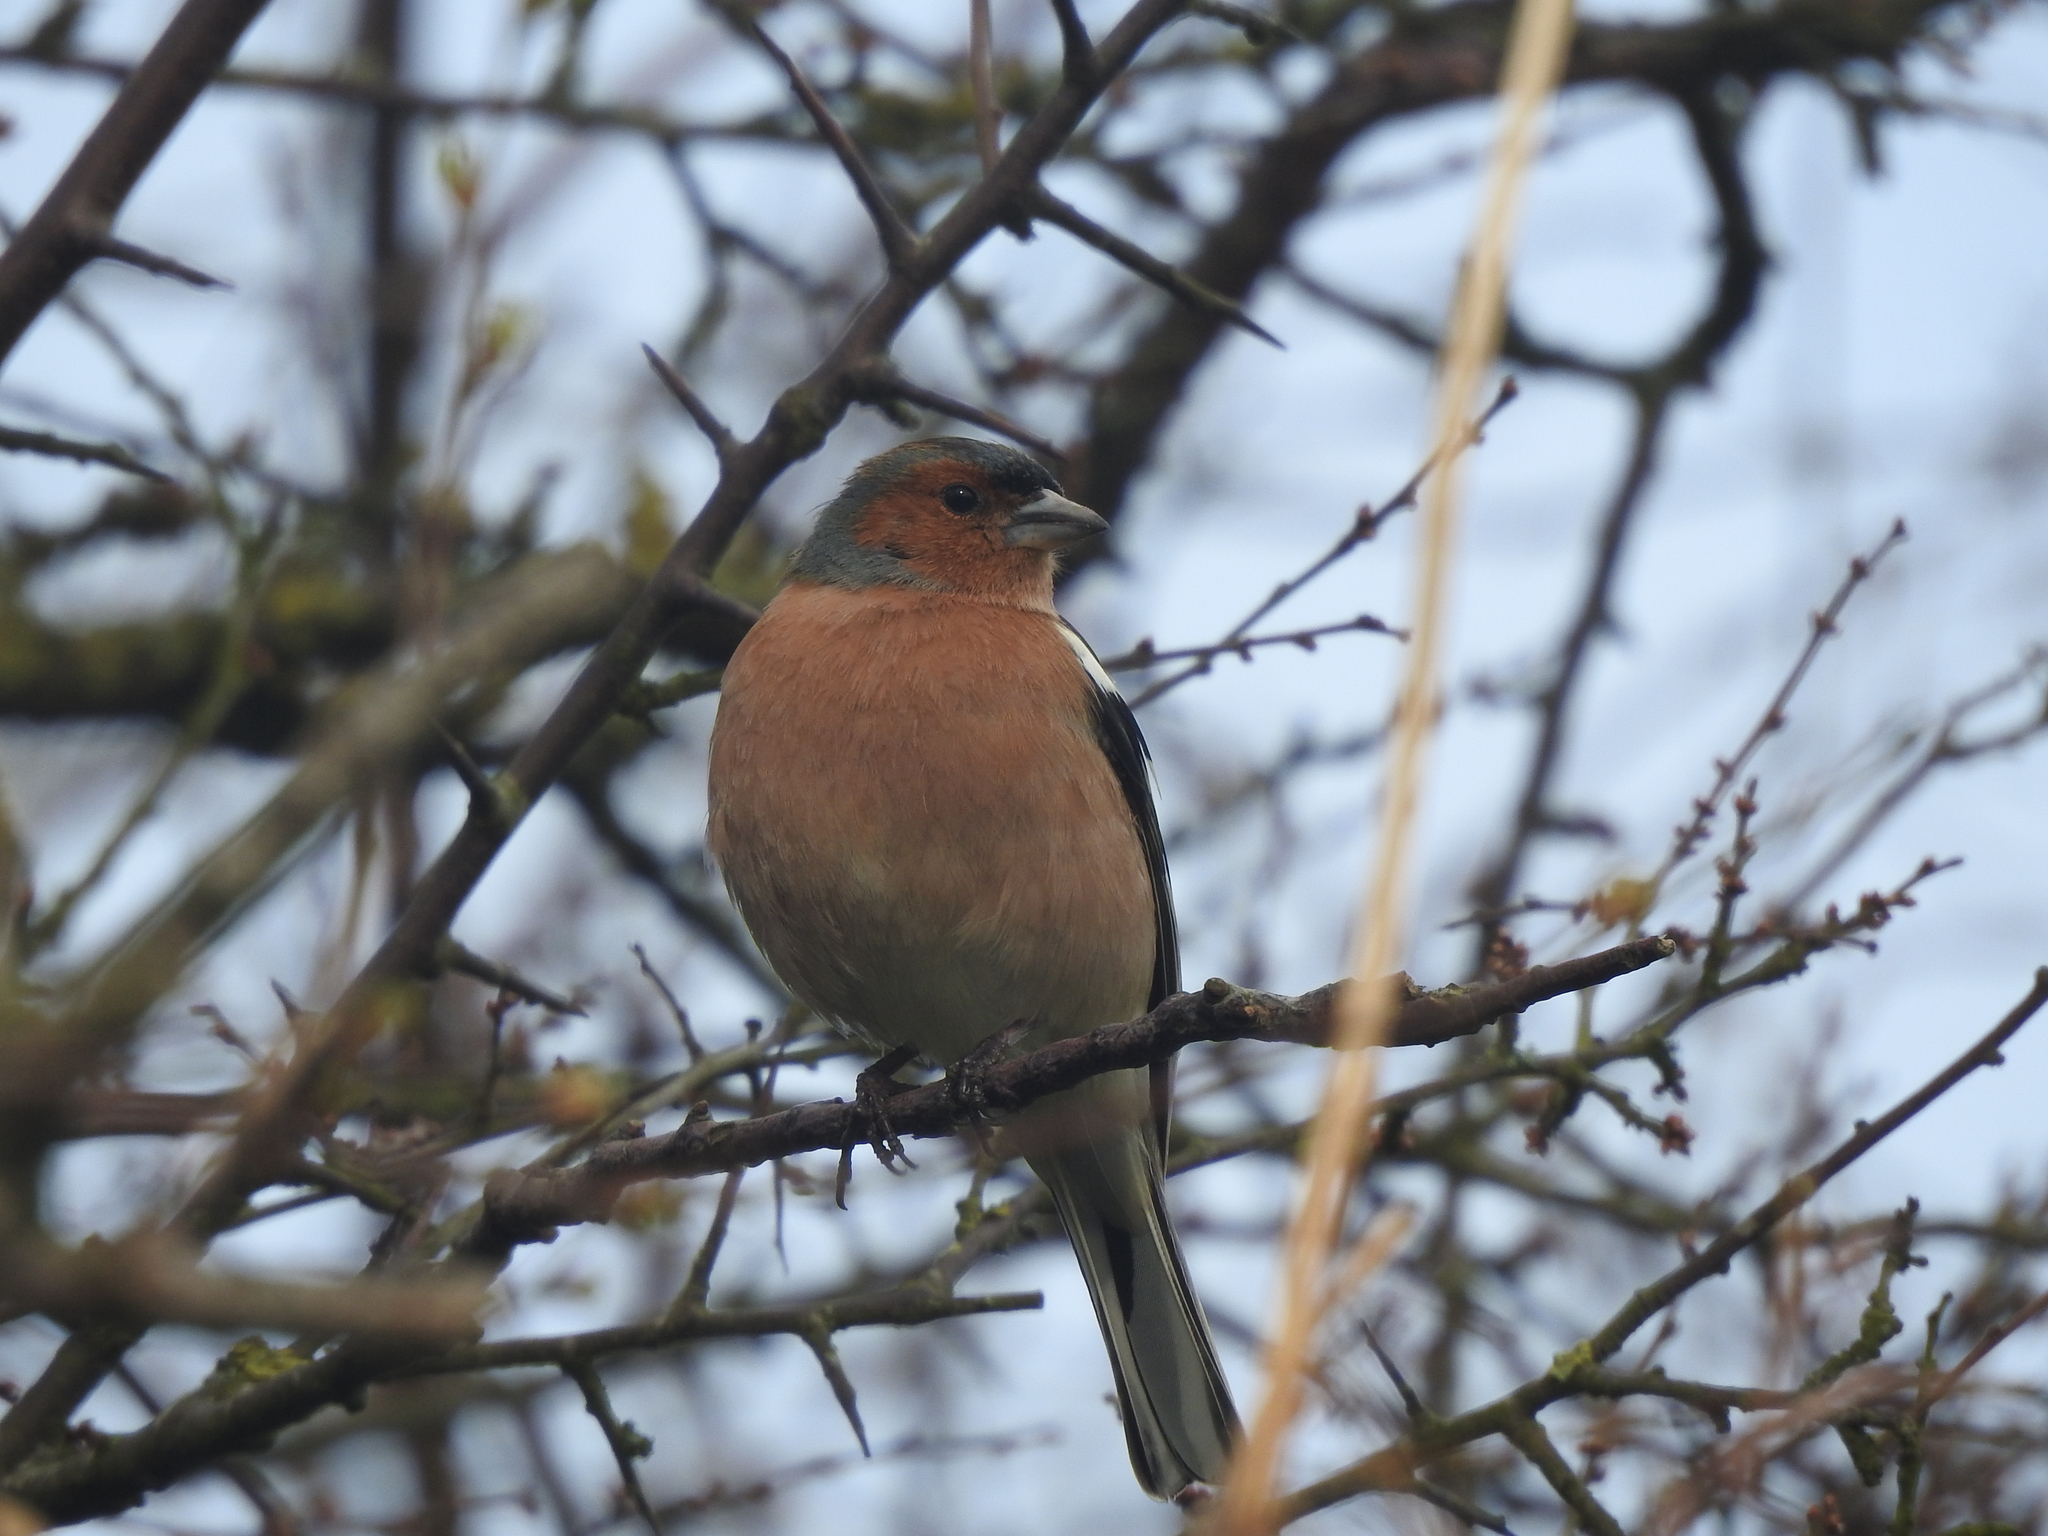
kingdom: Animalia
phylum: Chordata
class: Aves
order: Passeriformes
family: Fringillidae
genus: Fringilla
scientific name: Fringilla coelebs
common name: Common chaffinch
